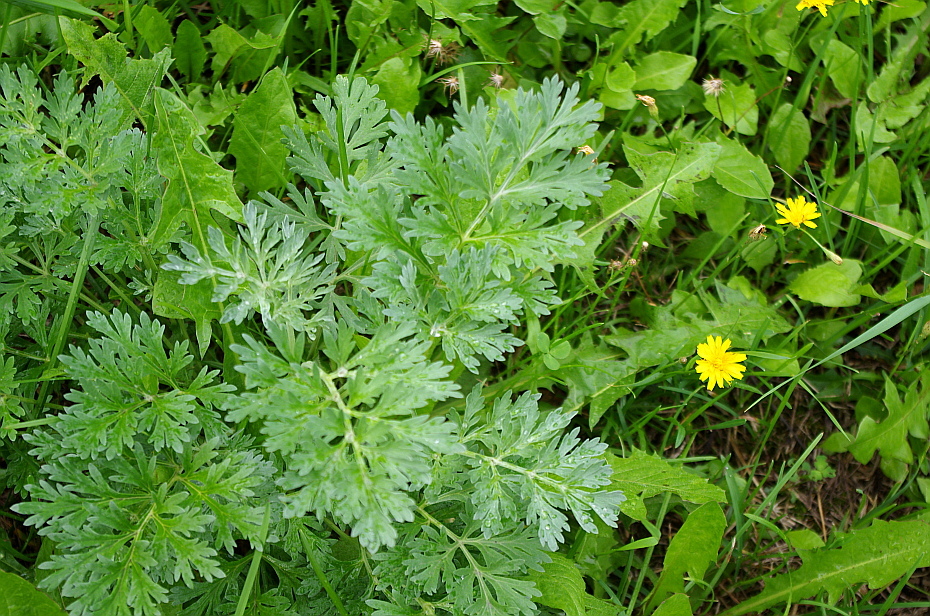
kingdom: Plantae
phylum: Tracheophyta
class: Magnoliopsida
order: Asterales
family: Asteraceae
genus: Artemisia
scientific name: Artemisia absinthium
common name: Wormwood
